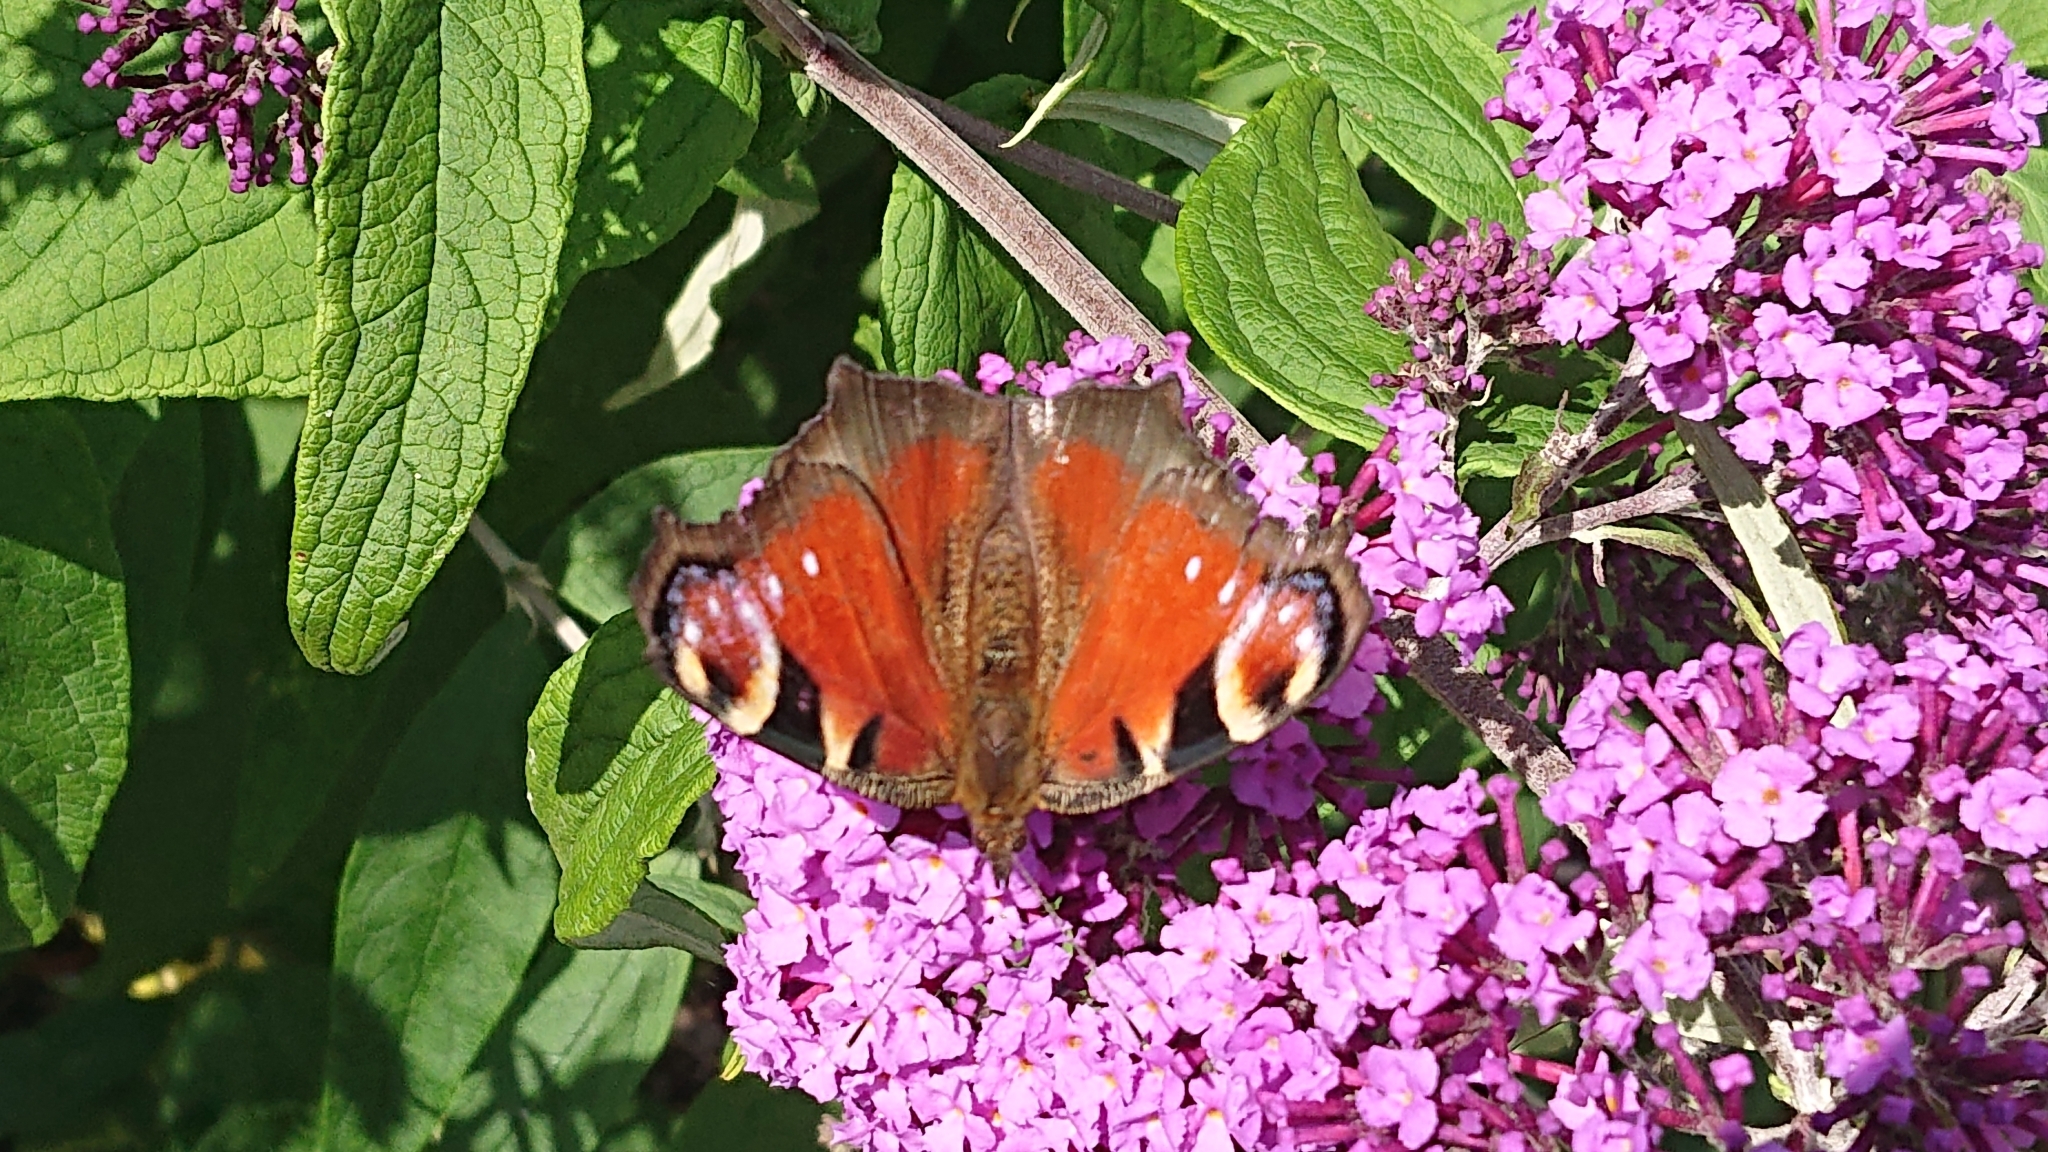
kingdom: Animalia
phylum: Arthropoda
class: Insecta
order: Lepidoptera
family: Nymphalidae
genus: Aglais
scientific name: Aglais io
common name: Peacock
